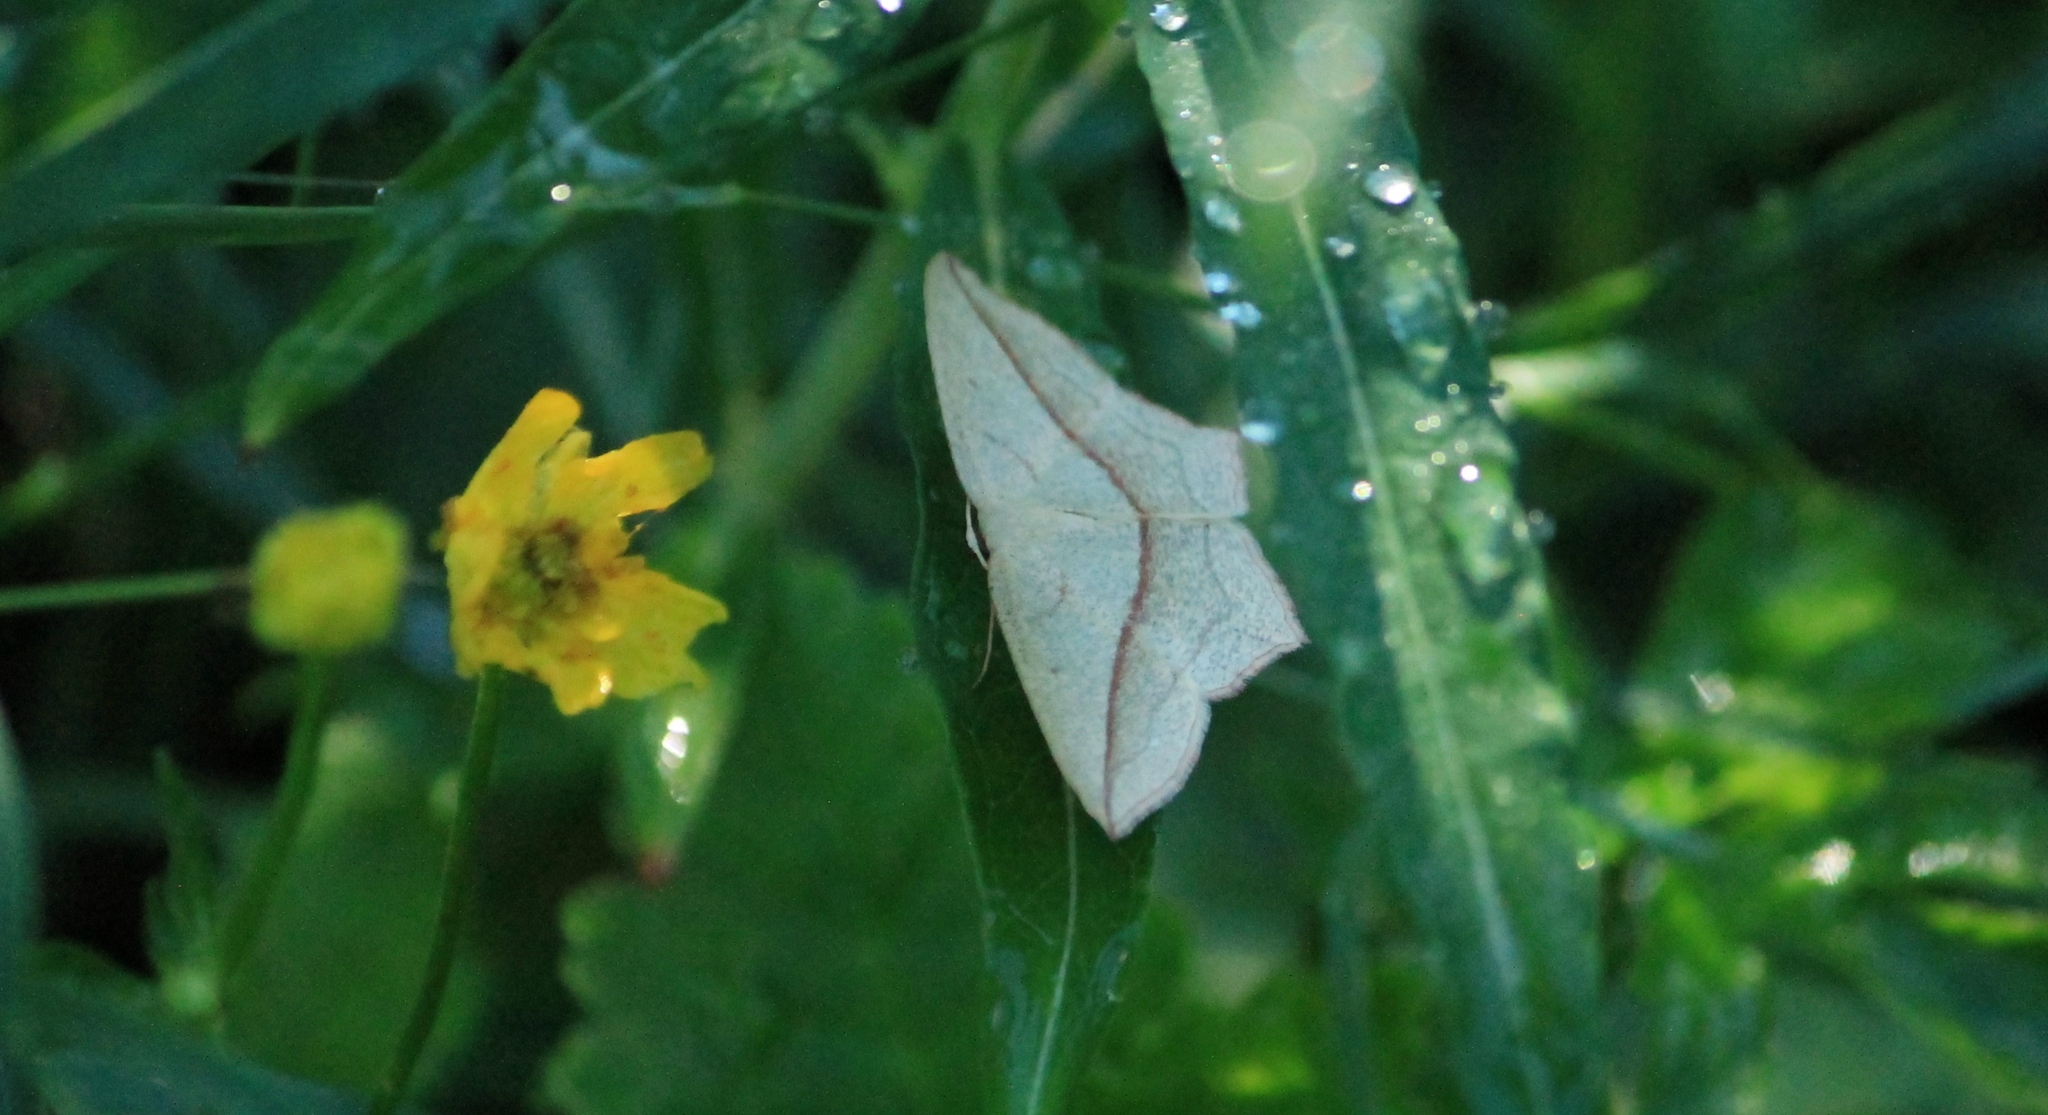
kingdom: Animalia
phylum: Arthropoda
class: Insecta
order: Lepidoptera
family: Geometridae
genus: Timandra
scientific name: Timandra griseata
